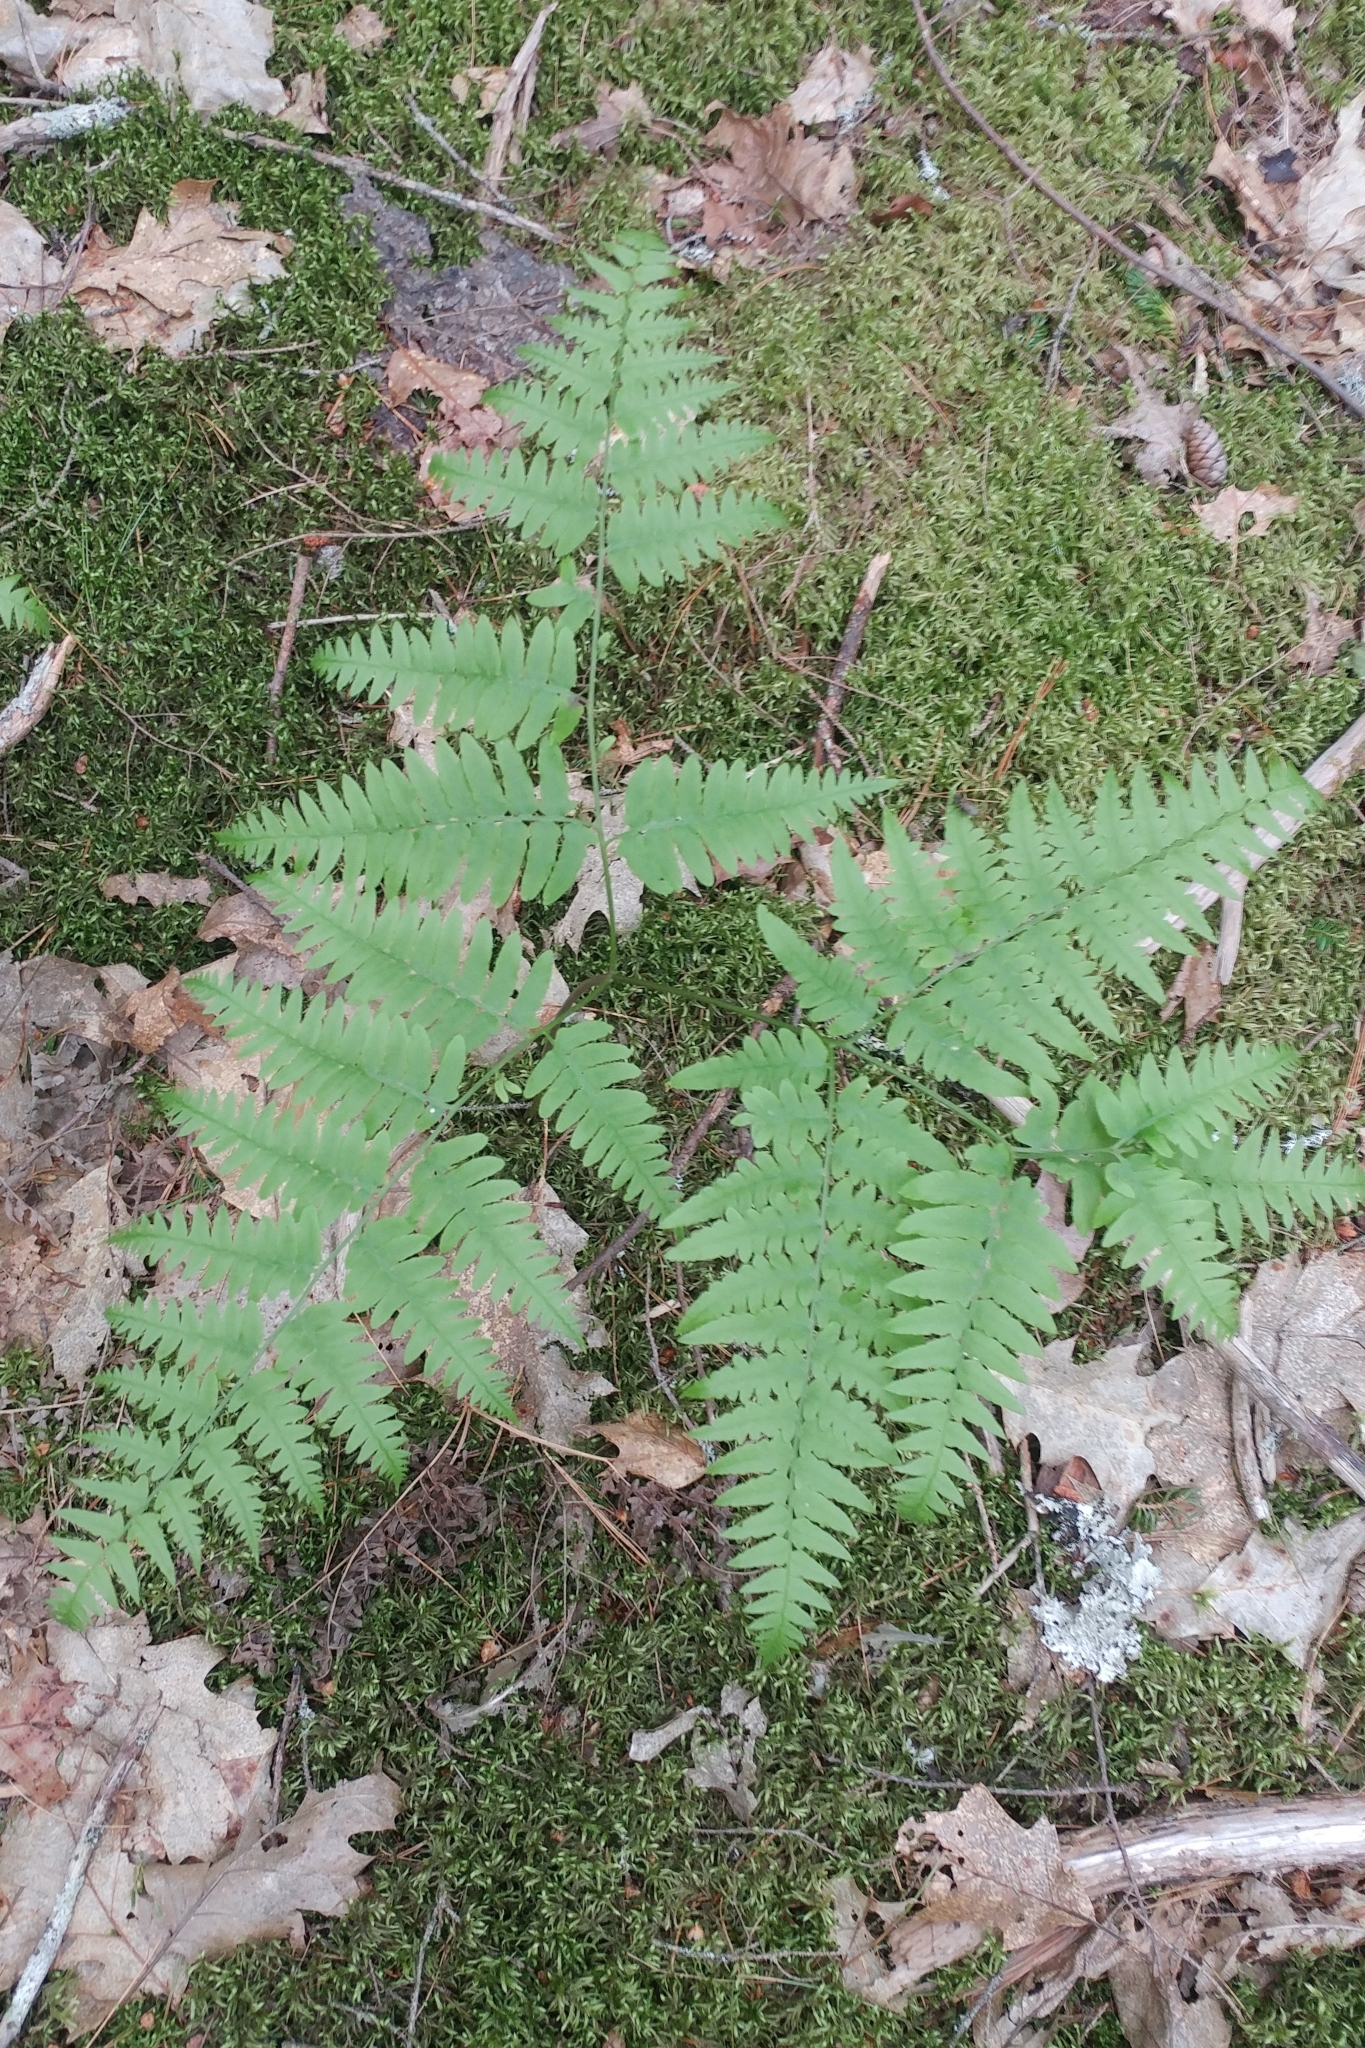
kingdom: Plantae
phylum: Tracheophyta
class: Polypodiopsida
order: Polypodiales
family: Dennstaedtiaceae
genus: Pteridium
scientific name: Pteridium aquilinum
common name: Bracken
